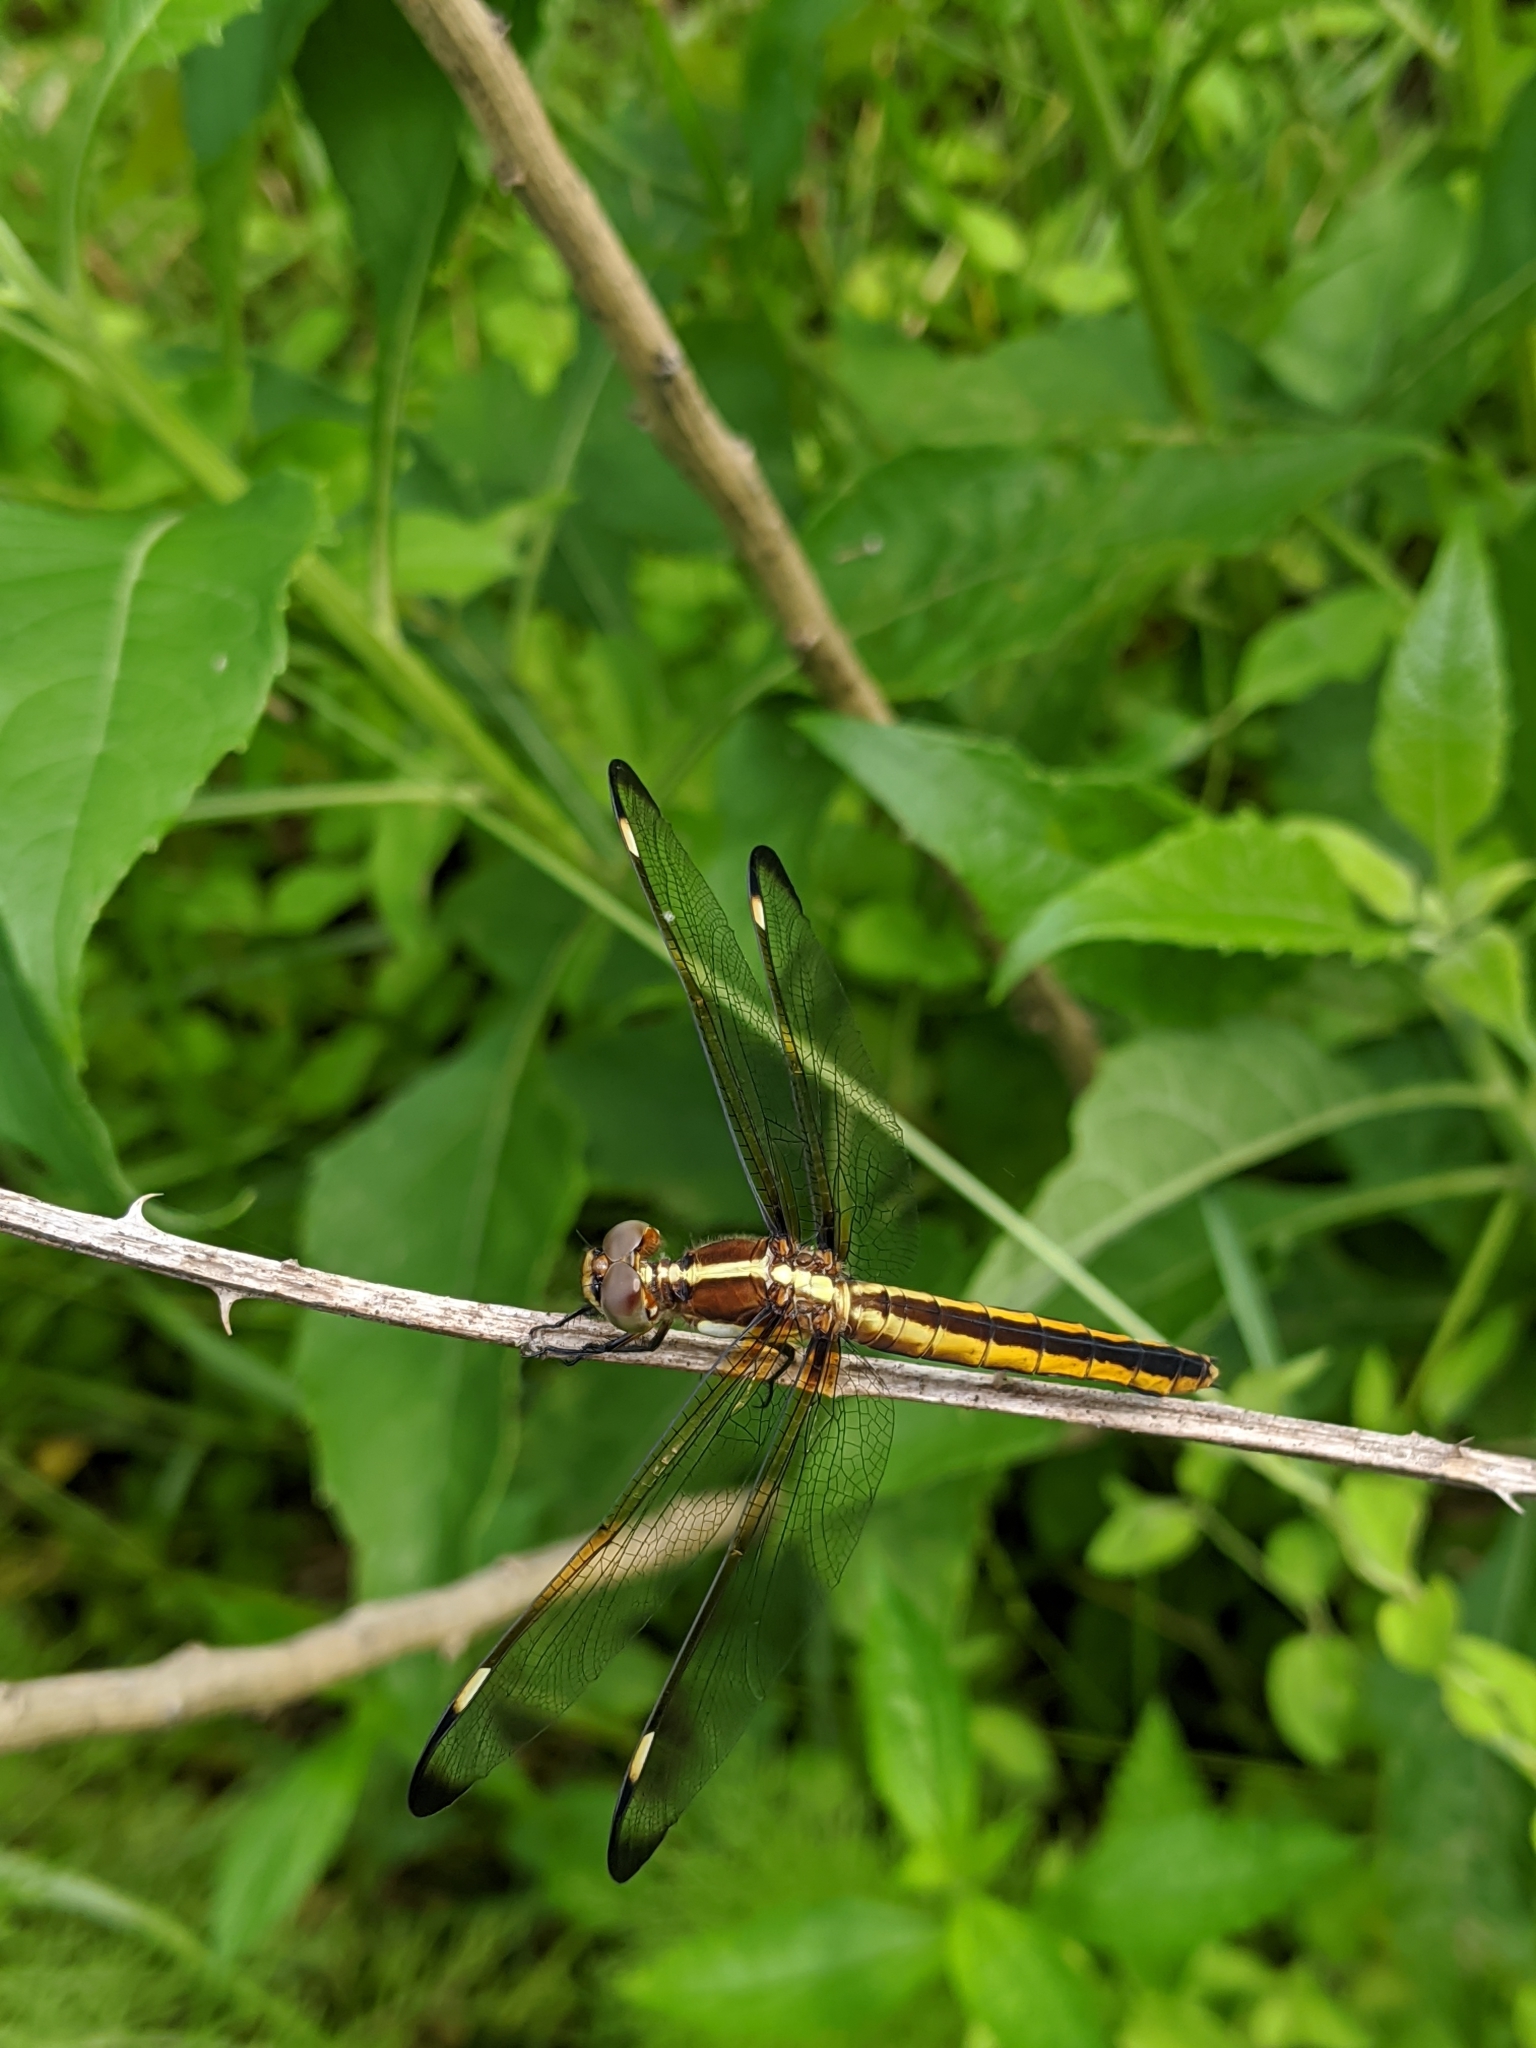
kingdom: Animalia
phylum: Arthropoda
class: Insecta
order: Odonata
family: Libellulidae
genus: Libellula
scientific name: Libellula cyanea
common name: Spangled skimmer
